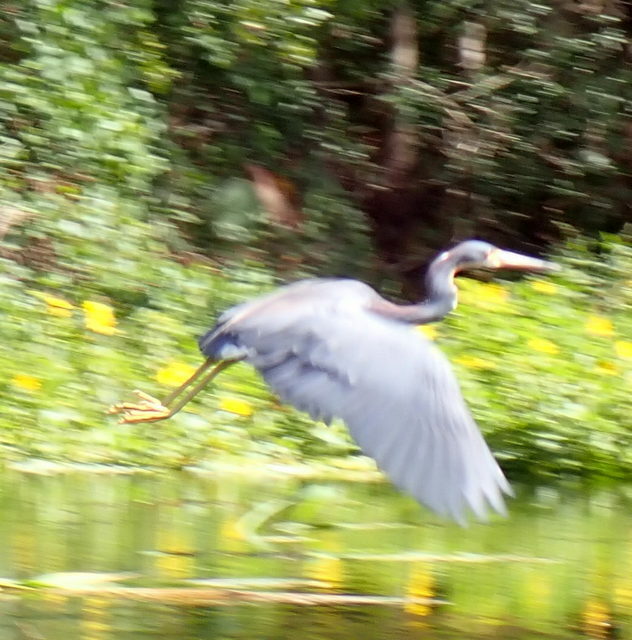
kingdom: Animalia
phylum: Chordata
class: Aves
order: Pelecaniformes
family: Ardeidae
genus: Egretta
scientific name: Egretta tricolor
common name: Tricolored heron
